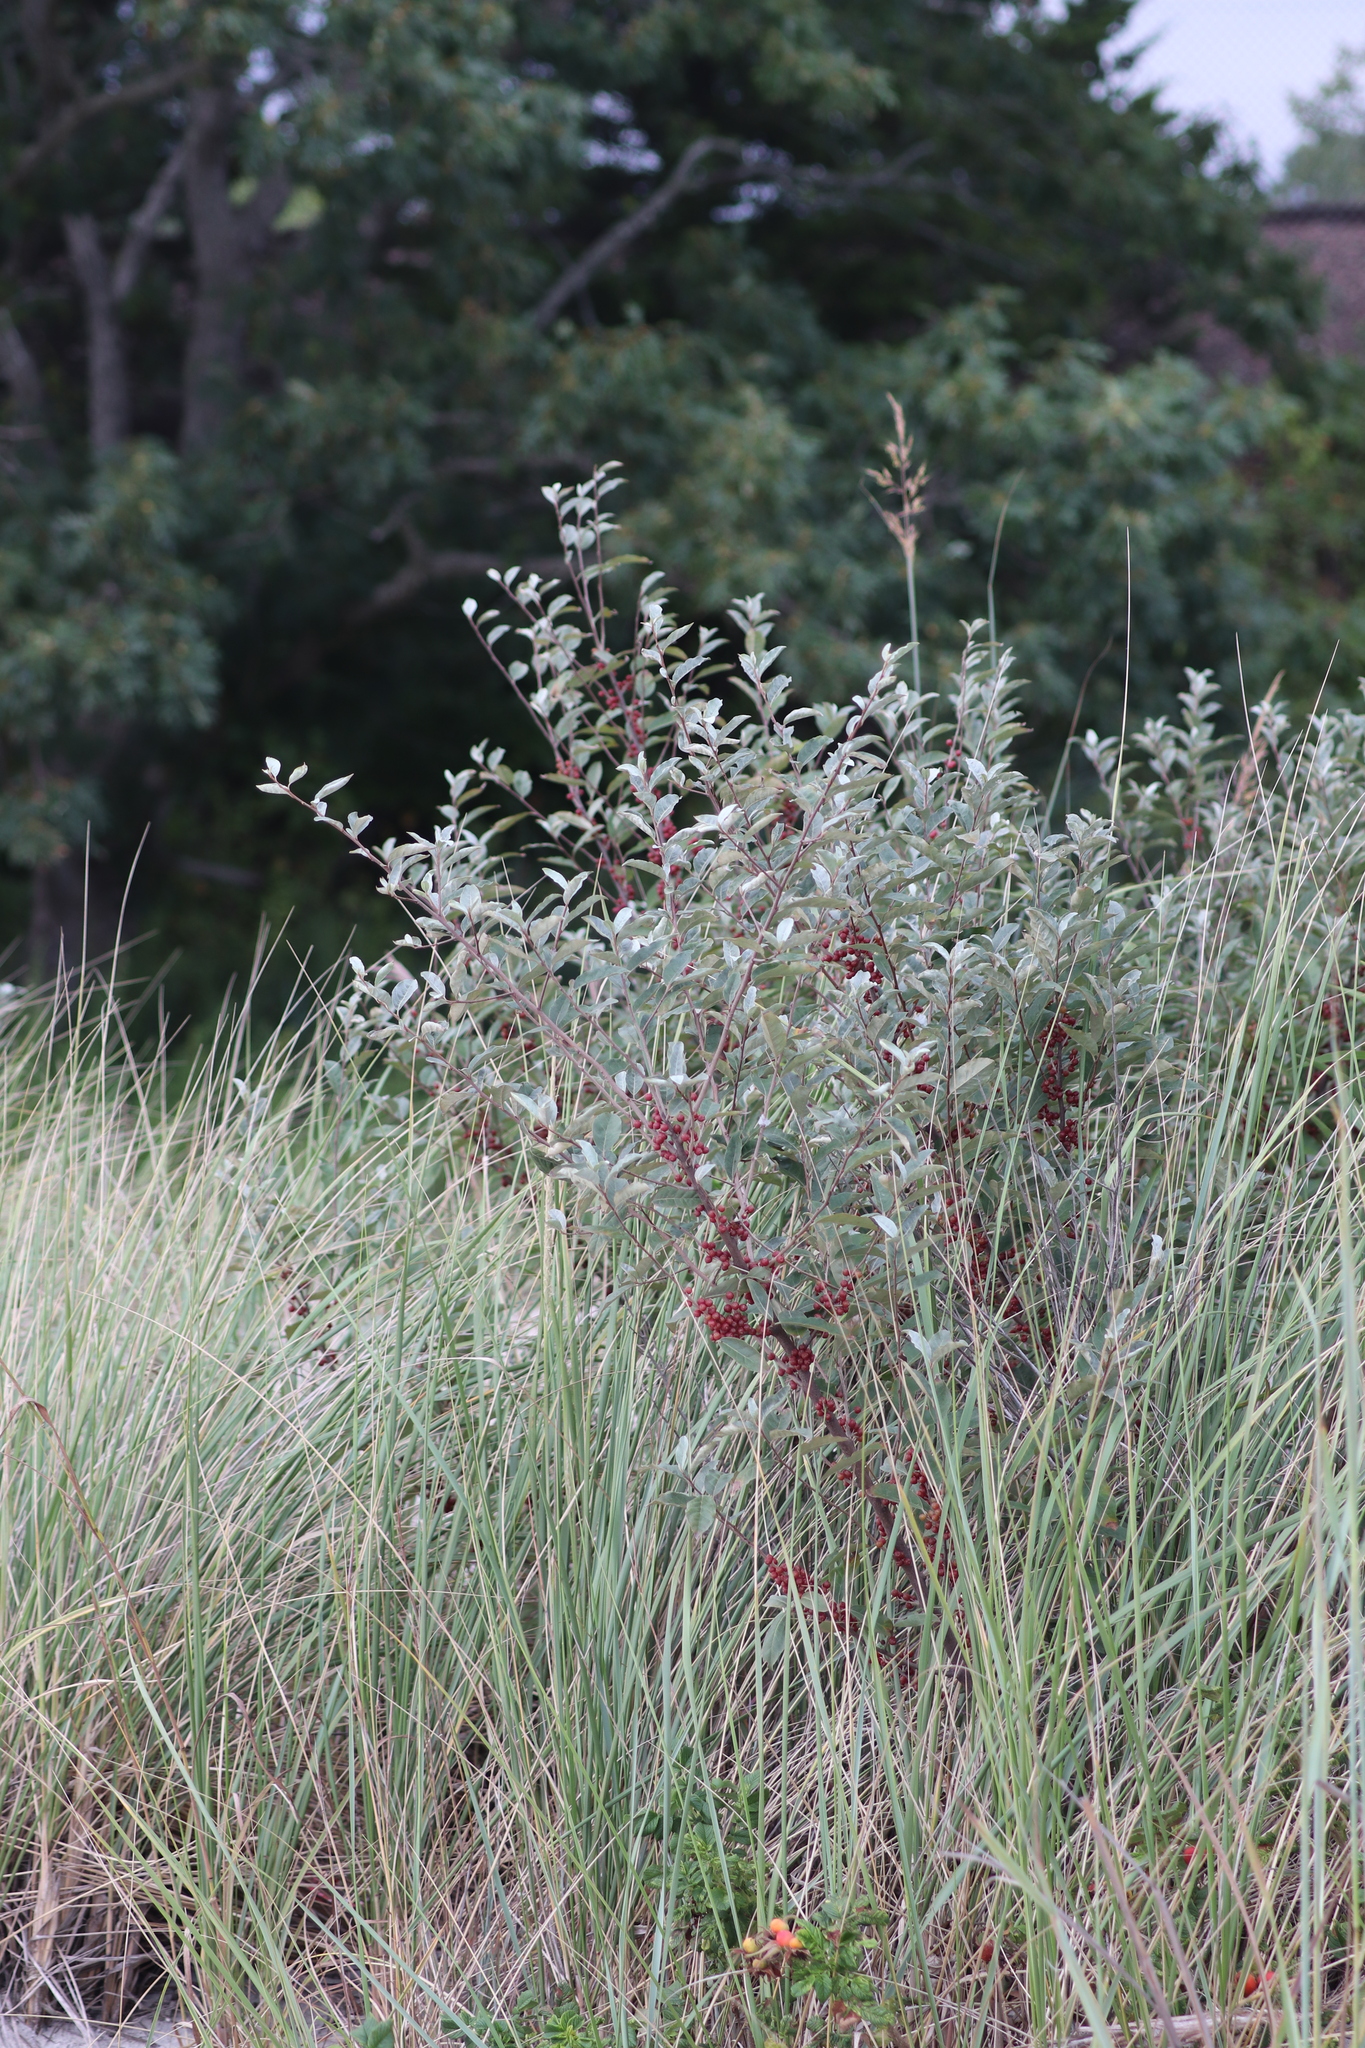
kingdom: Plantae
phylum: Tracheophyta
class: Magnoliopsida
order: Rosales
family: Elaeagnaceae
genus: Elaeagnus
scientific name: Elaeagnus umbellata
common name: Autumn olive
